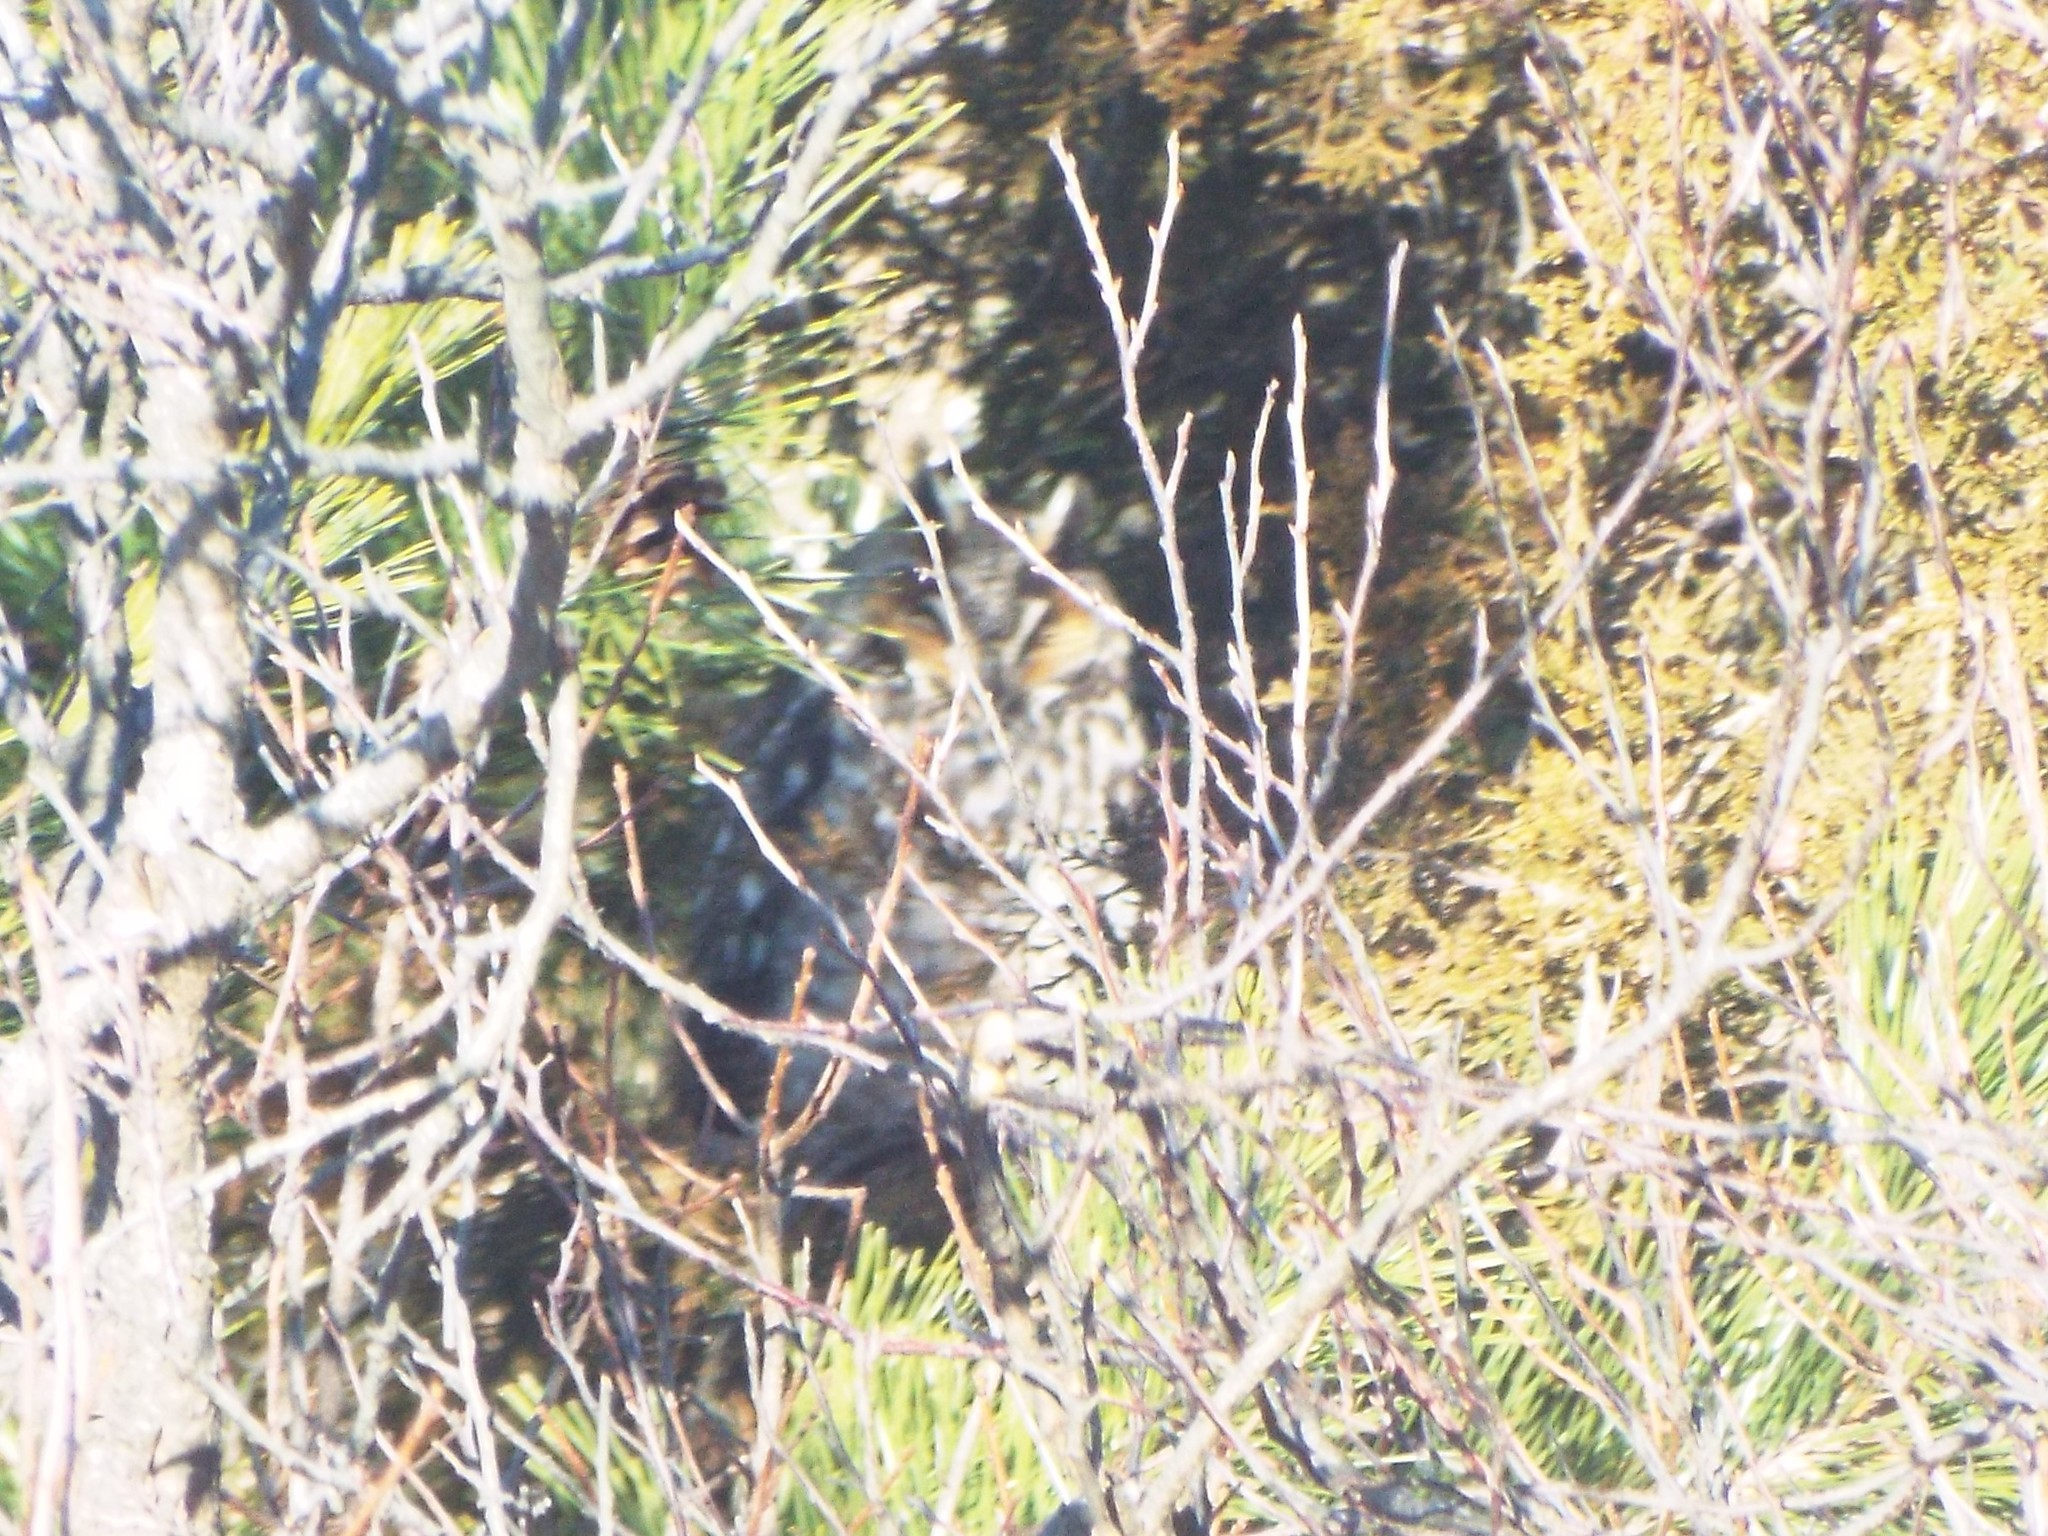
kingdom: Animalia
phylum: Chordata
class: Aves
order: Strigiformes
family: Strigidae
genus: Asio
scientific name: Asio otus
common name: Long-eared owl
